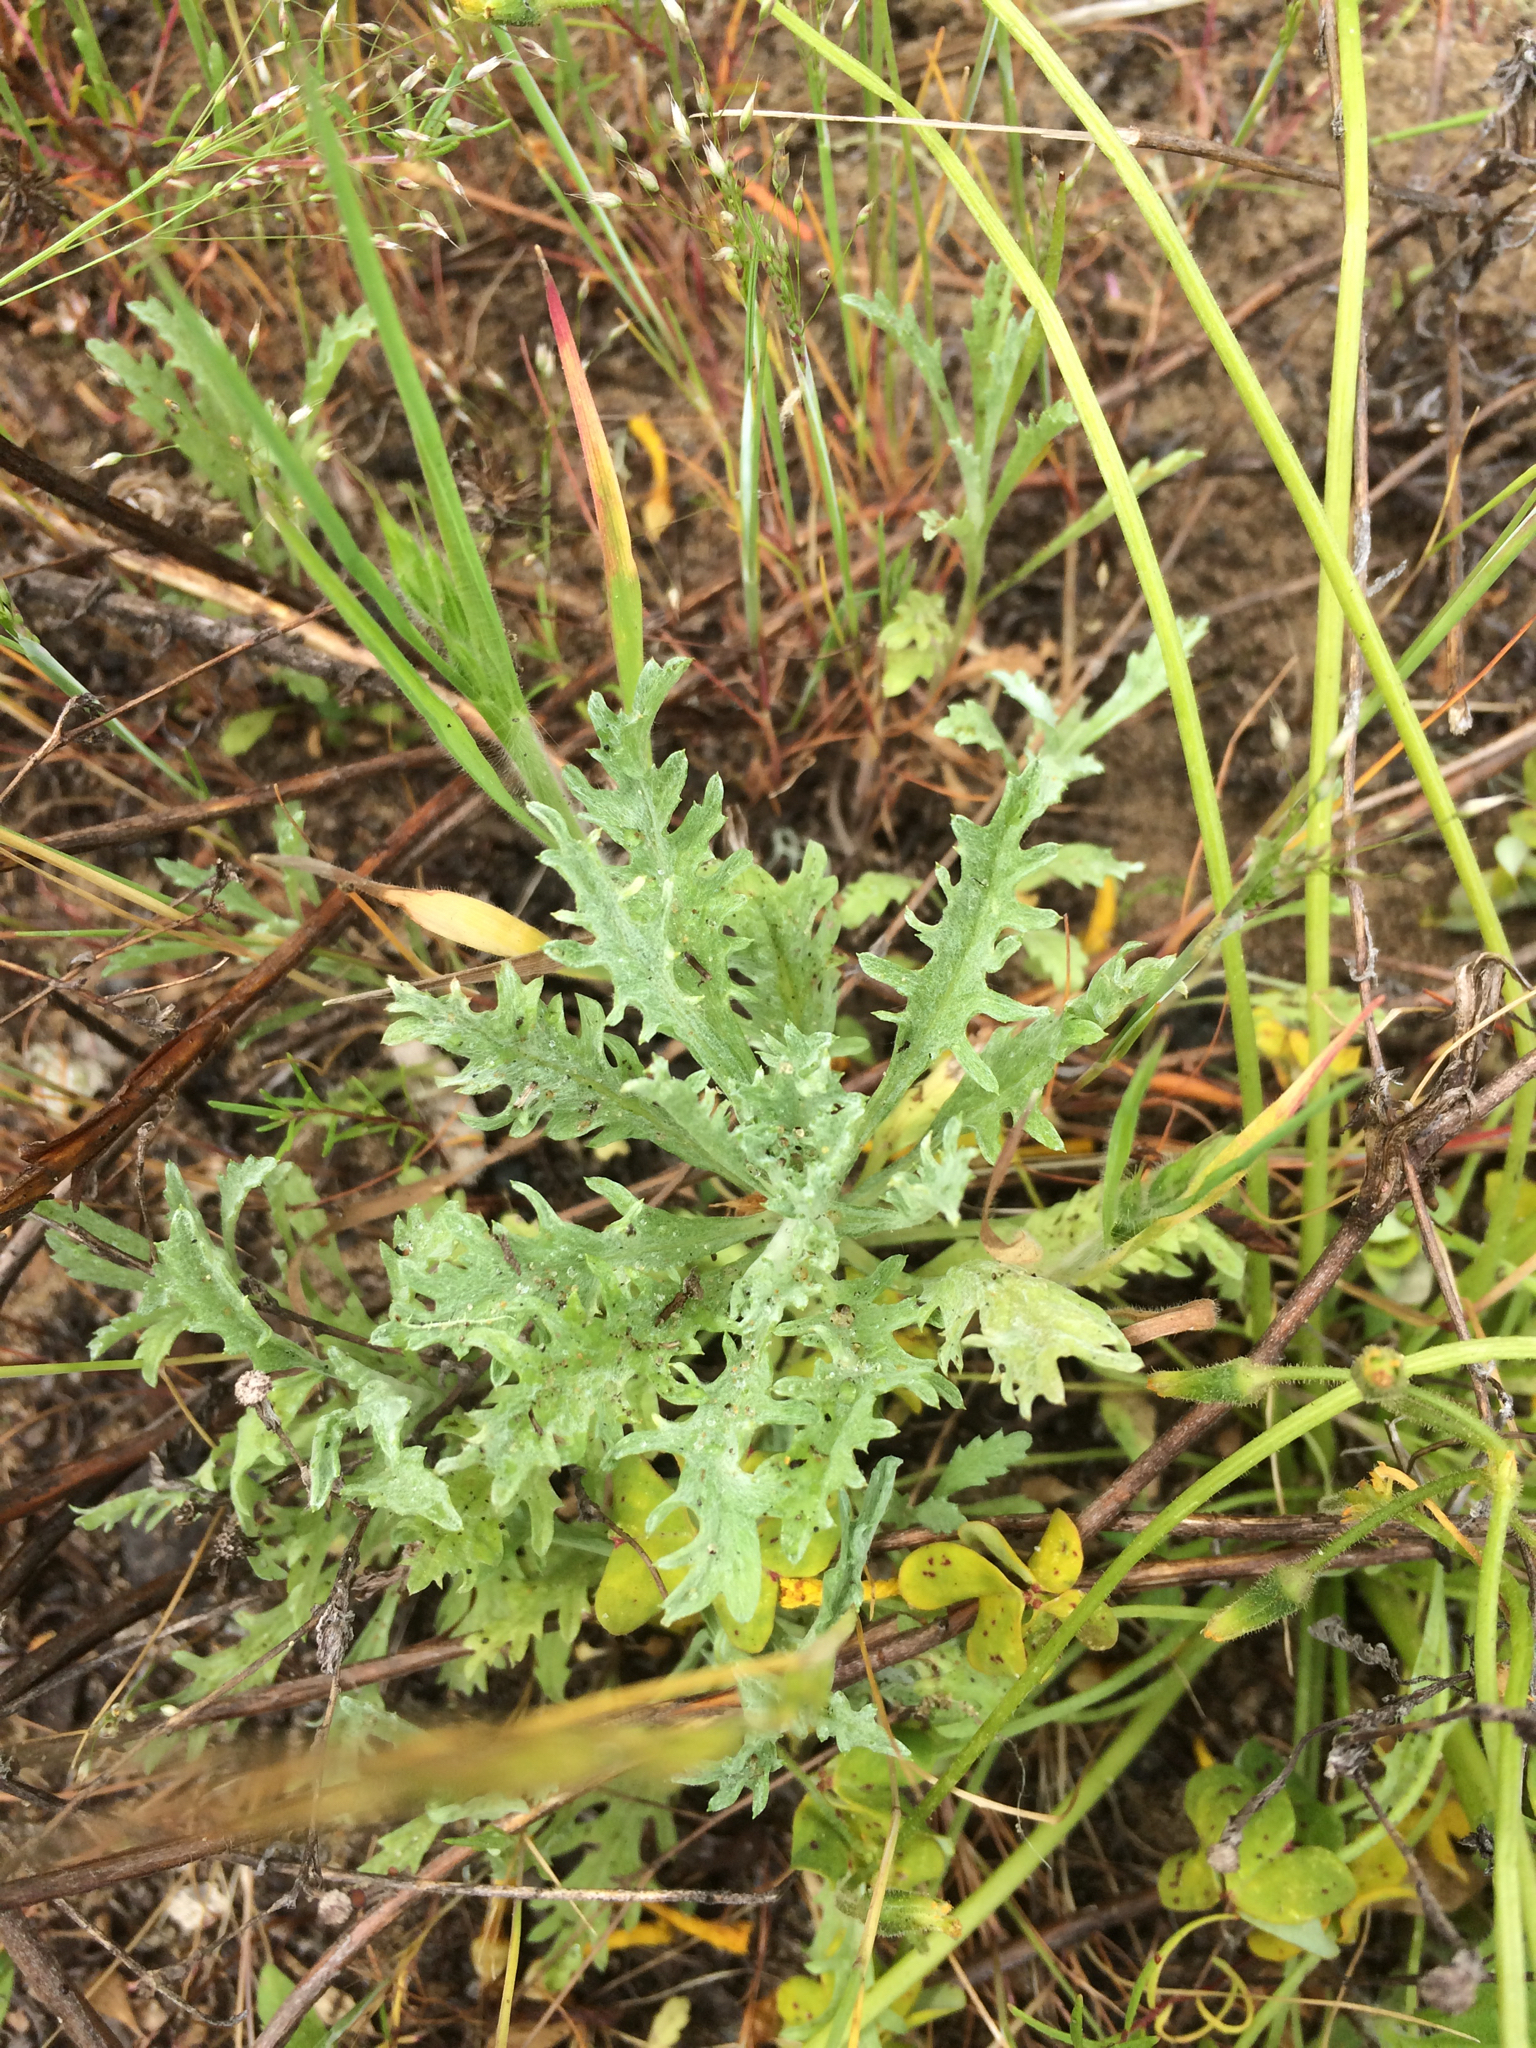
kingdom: Plantae
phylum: Tracheophyta
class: Magnoliopsida
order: Asterales
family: Asteraceae
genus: Lessingia
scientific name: Lessingia germanorum
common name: San francisco lessingia
